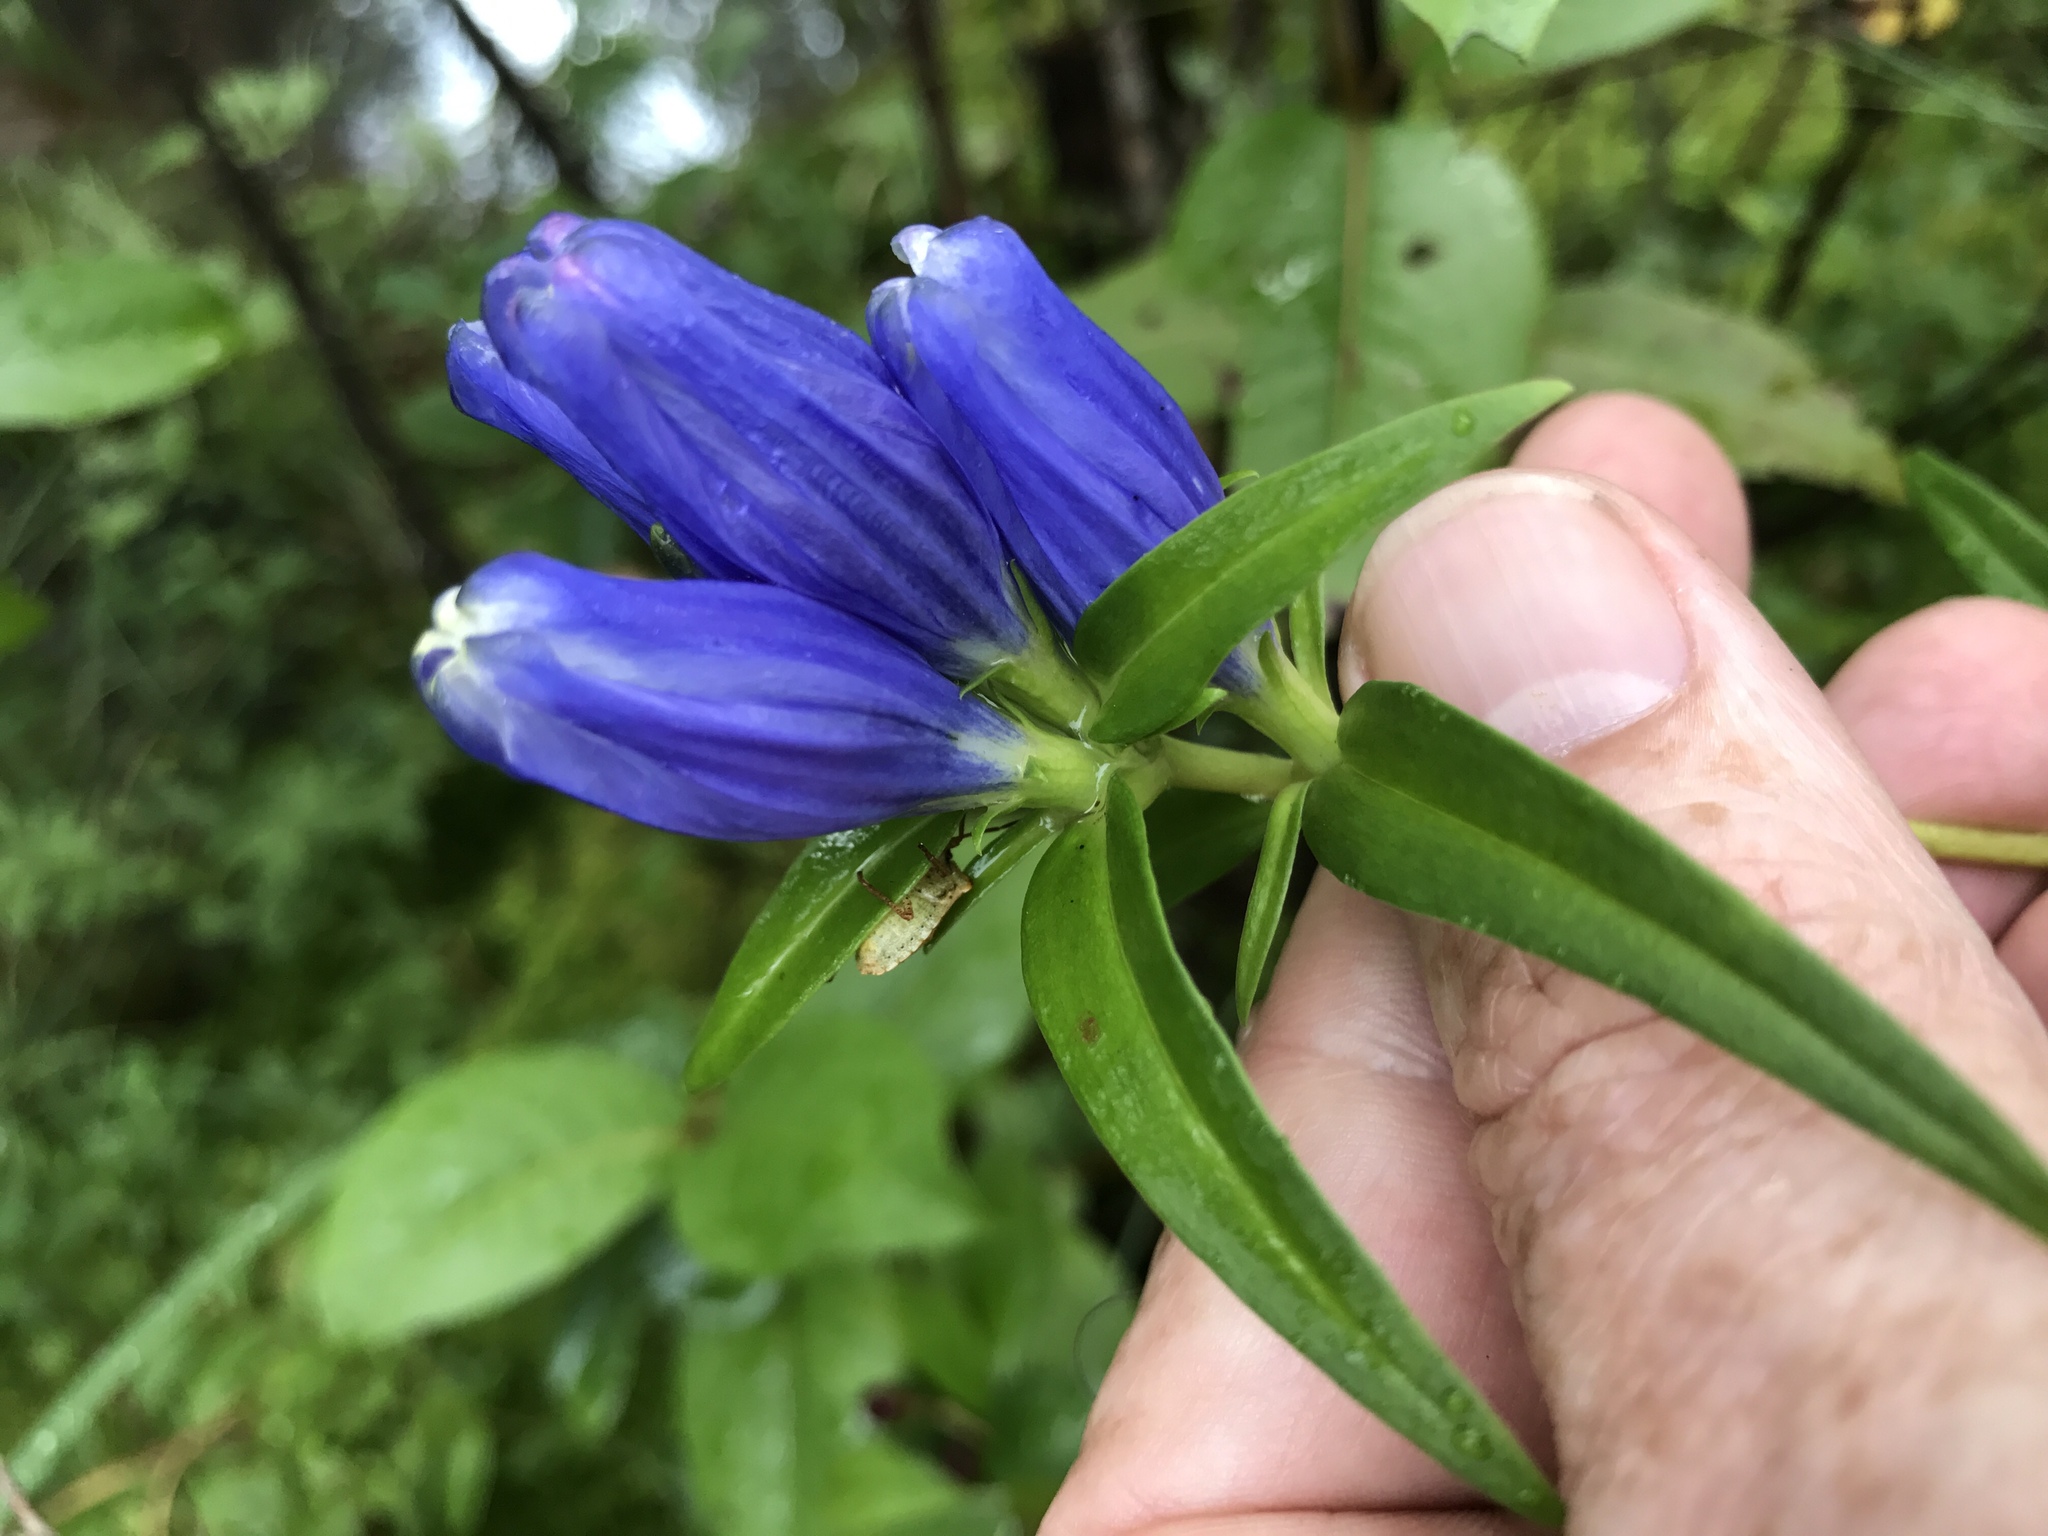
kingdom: Plantae
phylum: Tracheophyta
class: Magnoliopsida
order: Gentianales
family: Gentianaceae
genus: Gentiana
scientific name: Gentiana linearis
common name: Bastard gentian
